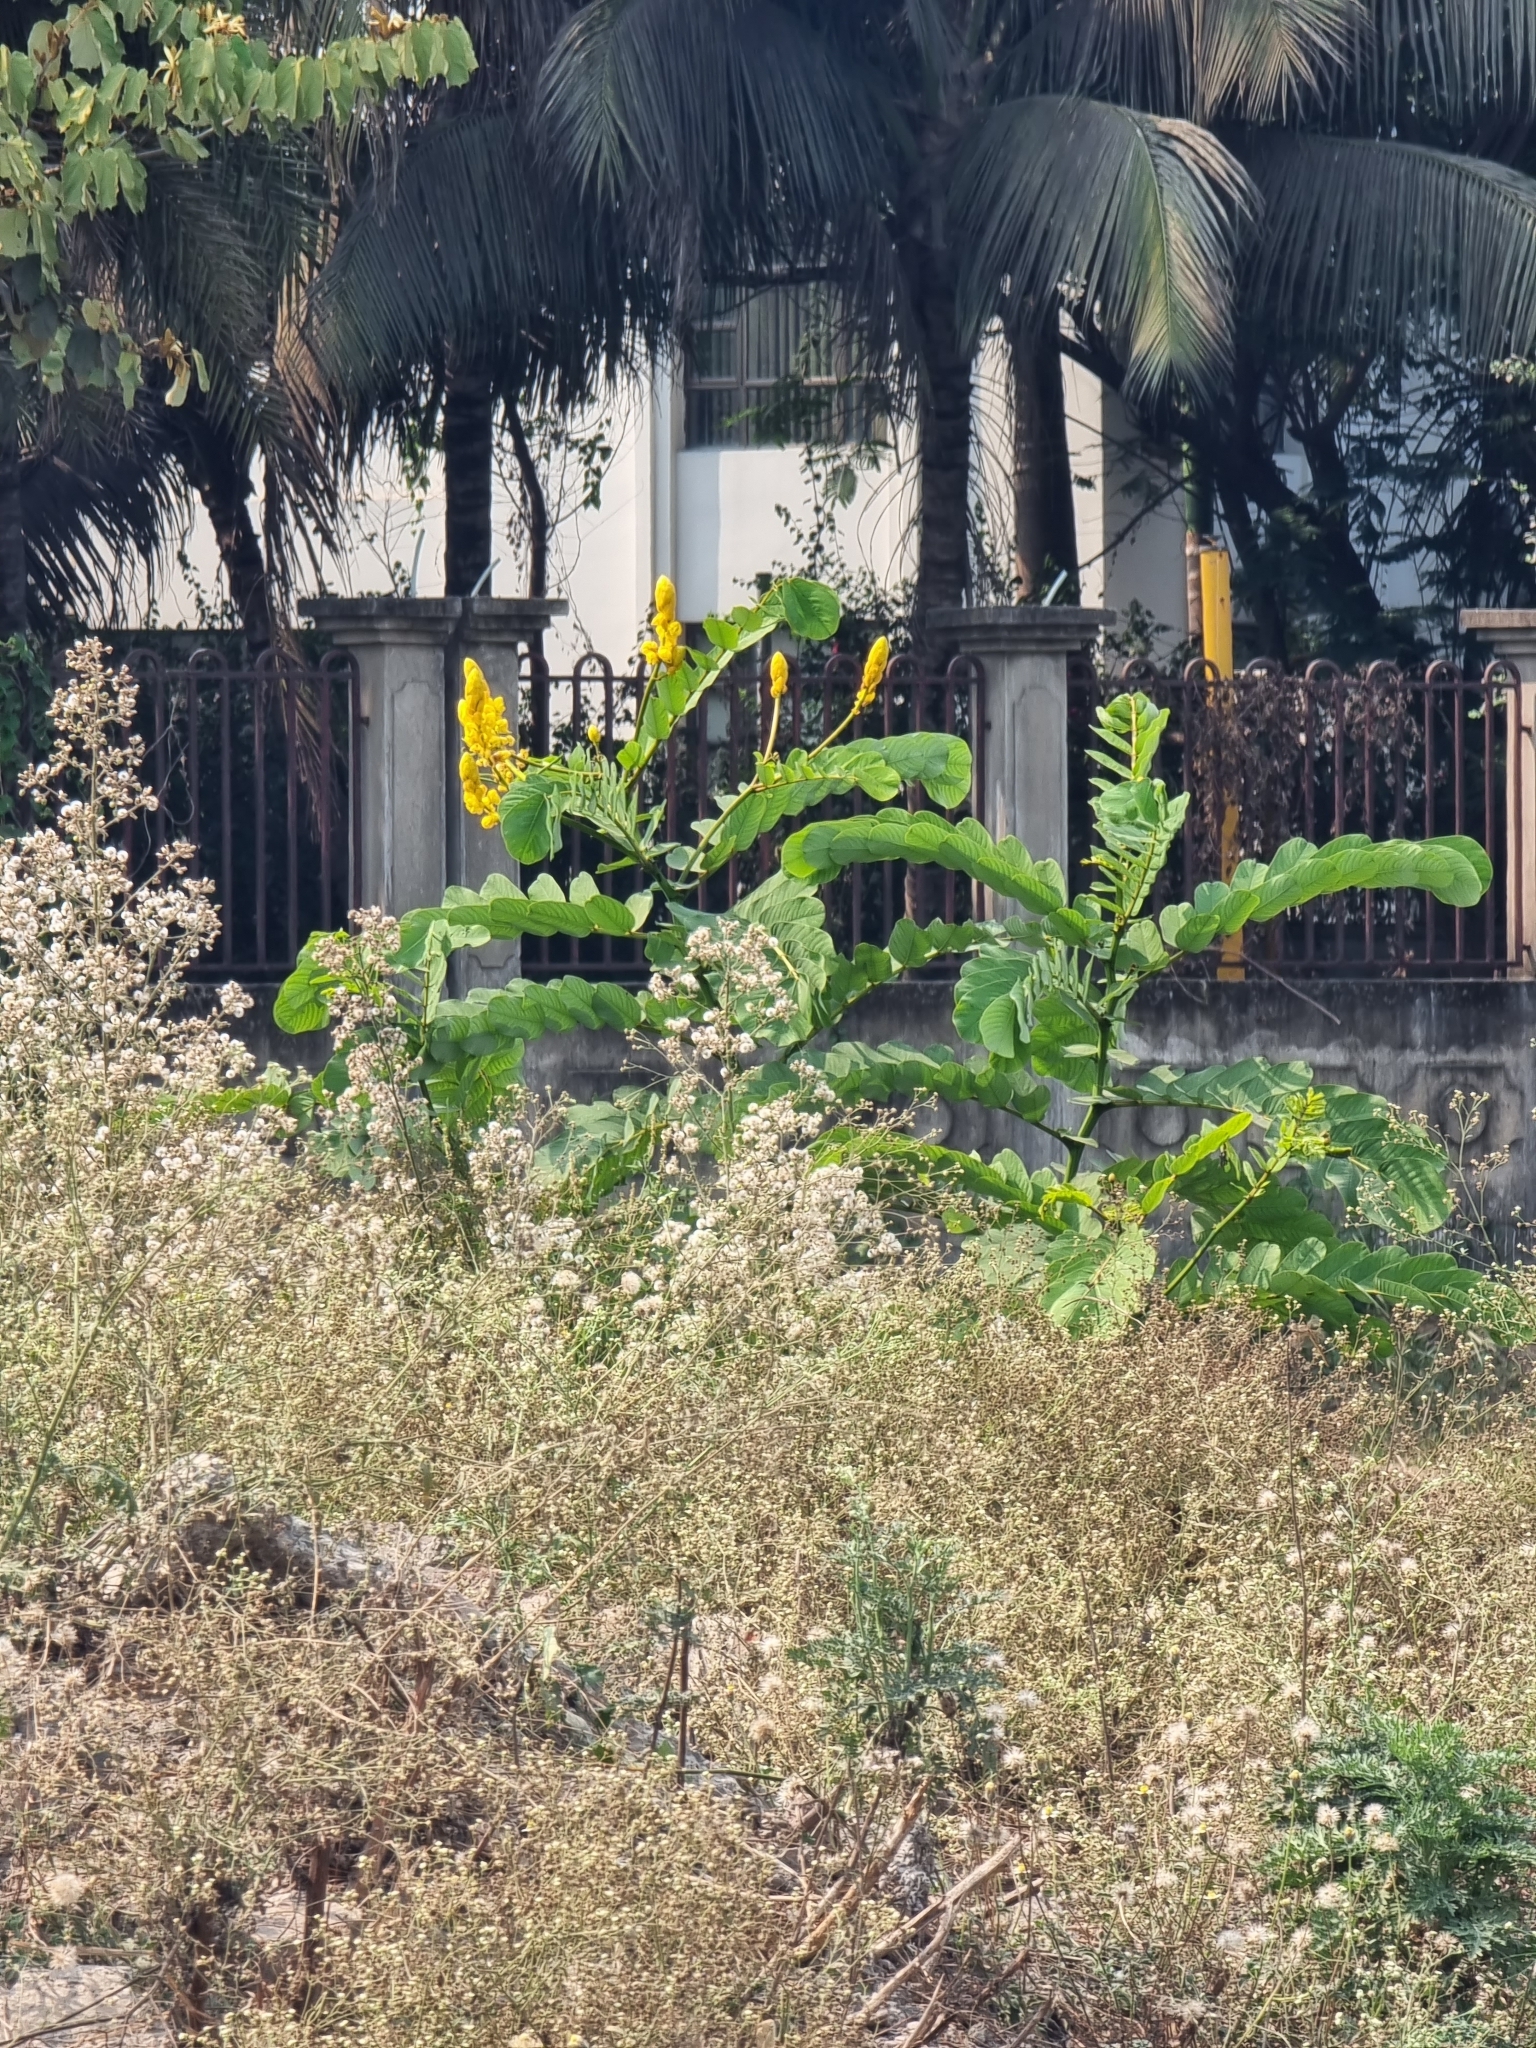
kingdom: Plantae
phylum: Tracheophyta
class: Magnoliopsida
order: Fabales
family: Fabaceae
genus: Senna
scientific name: Senna alata
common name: Emperor's candlesticks
